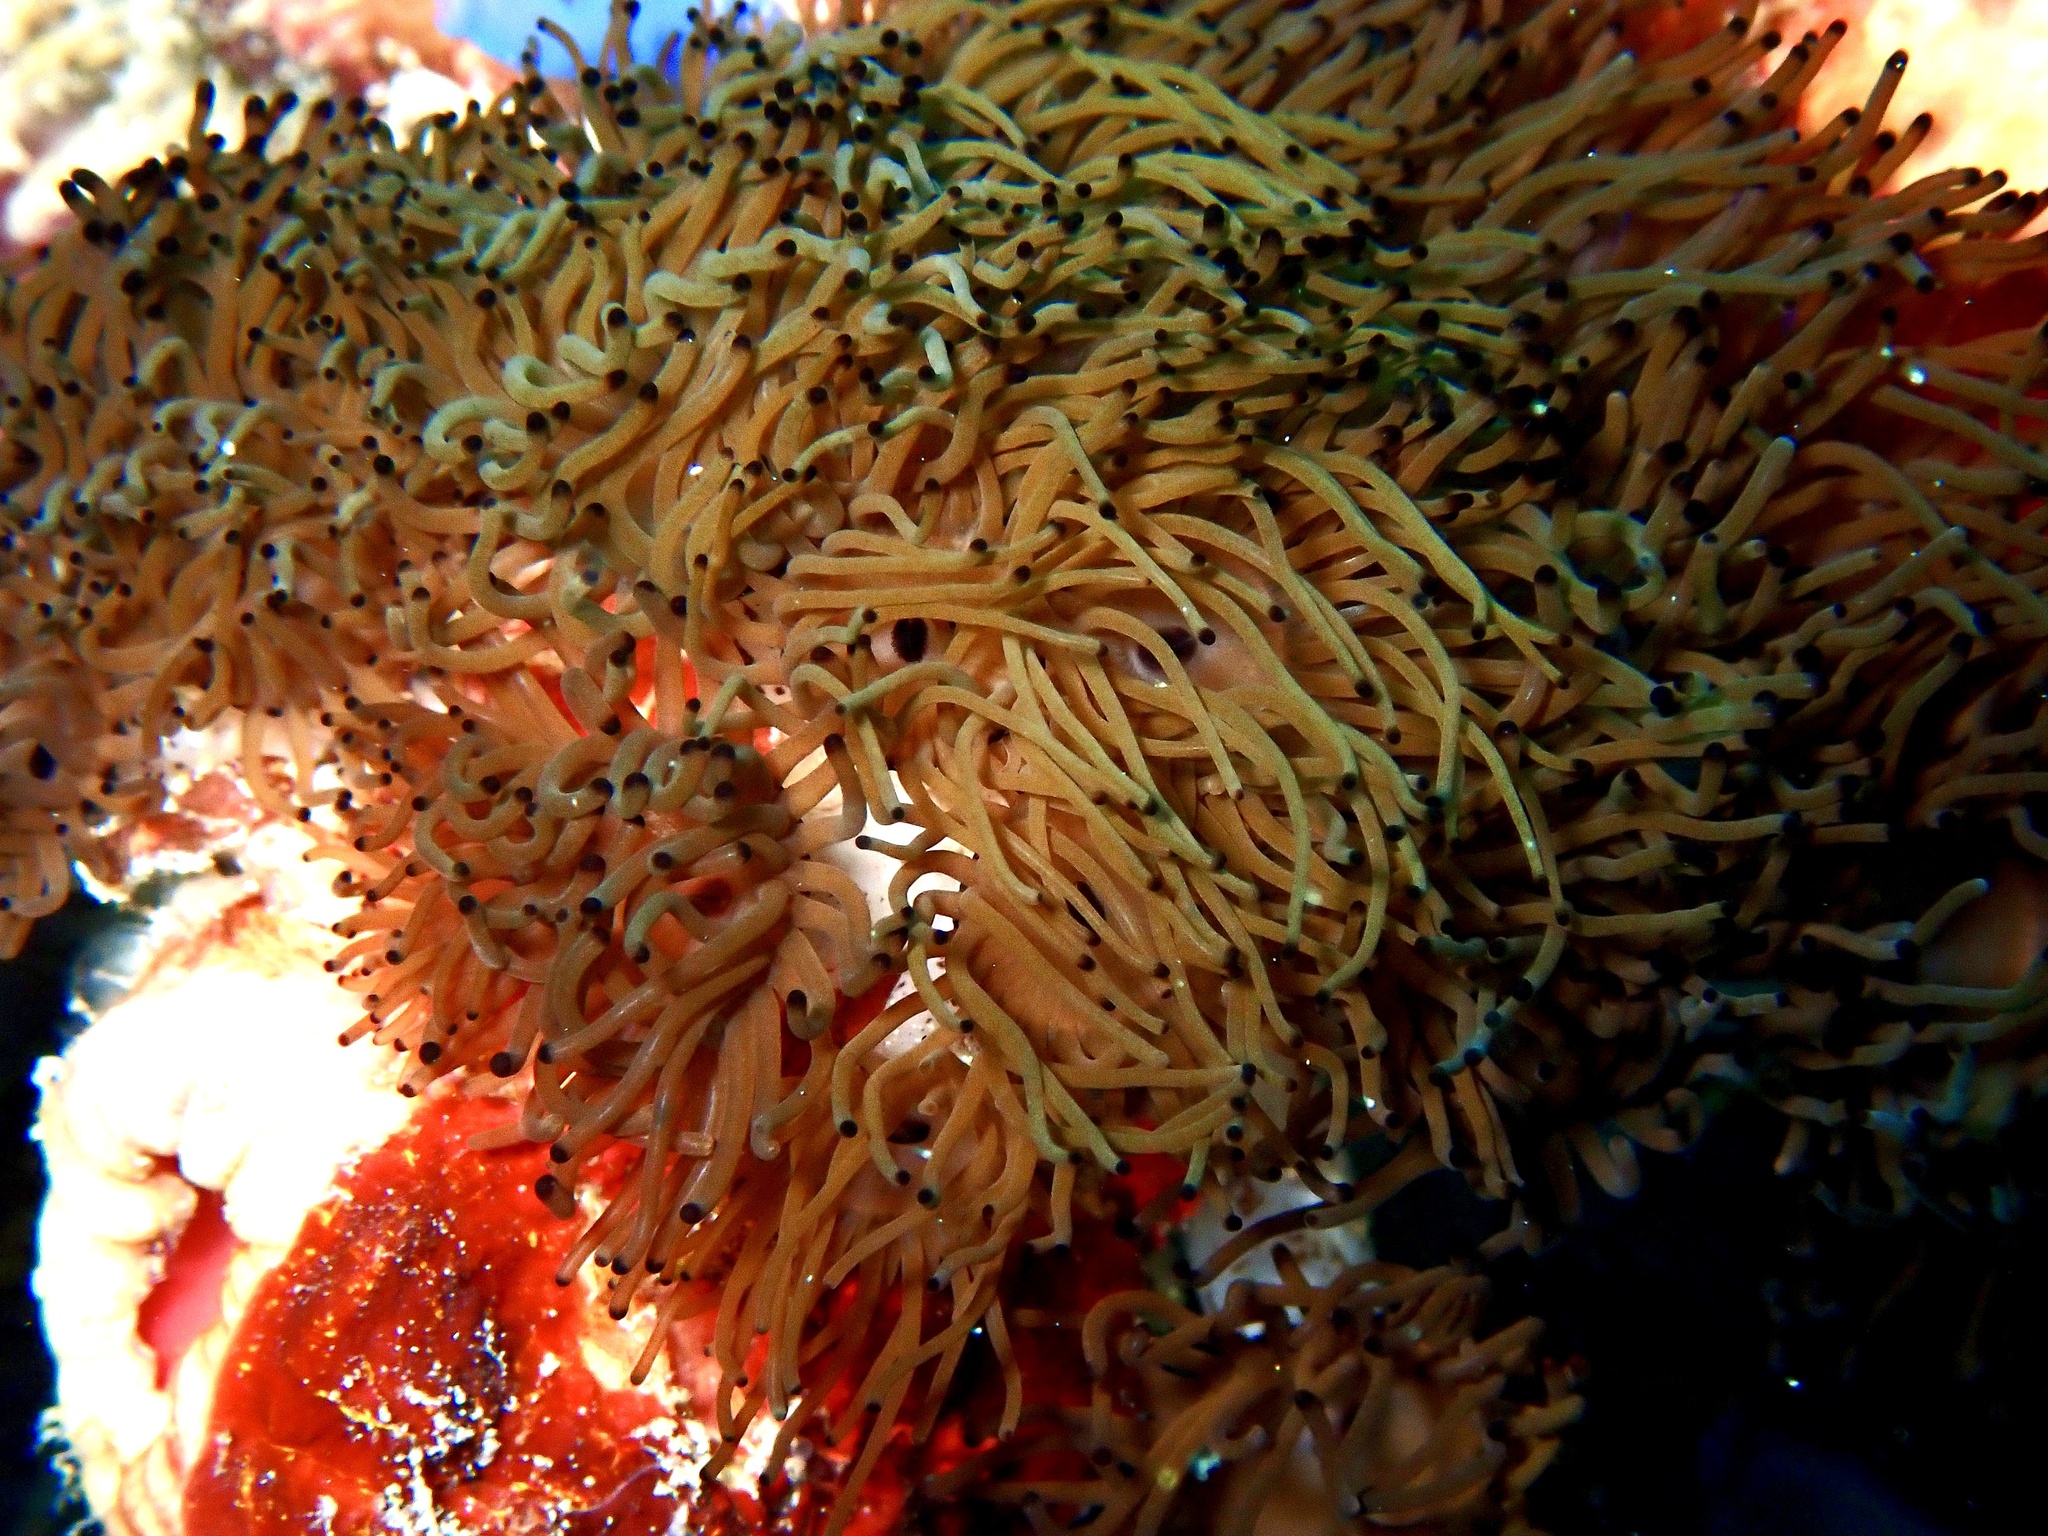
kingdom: Animalia
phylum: Cnidaria
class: Anthozoa
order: Zoantharia
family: Zoanthidae
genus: Acrozoanthus
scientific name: Acrozoanthus australiae
